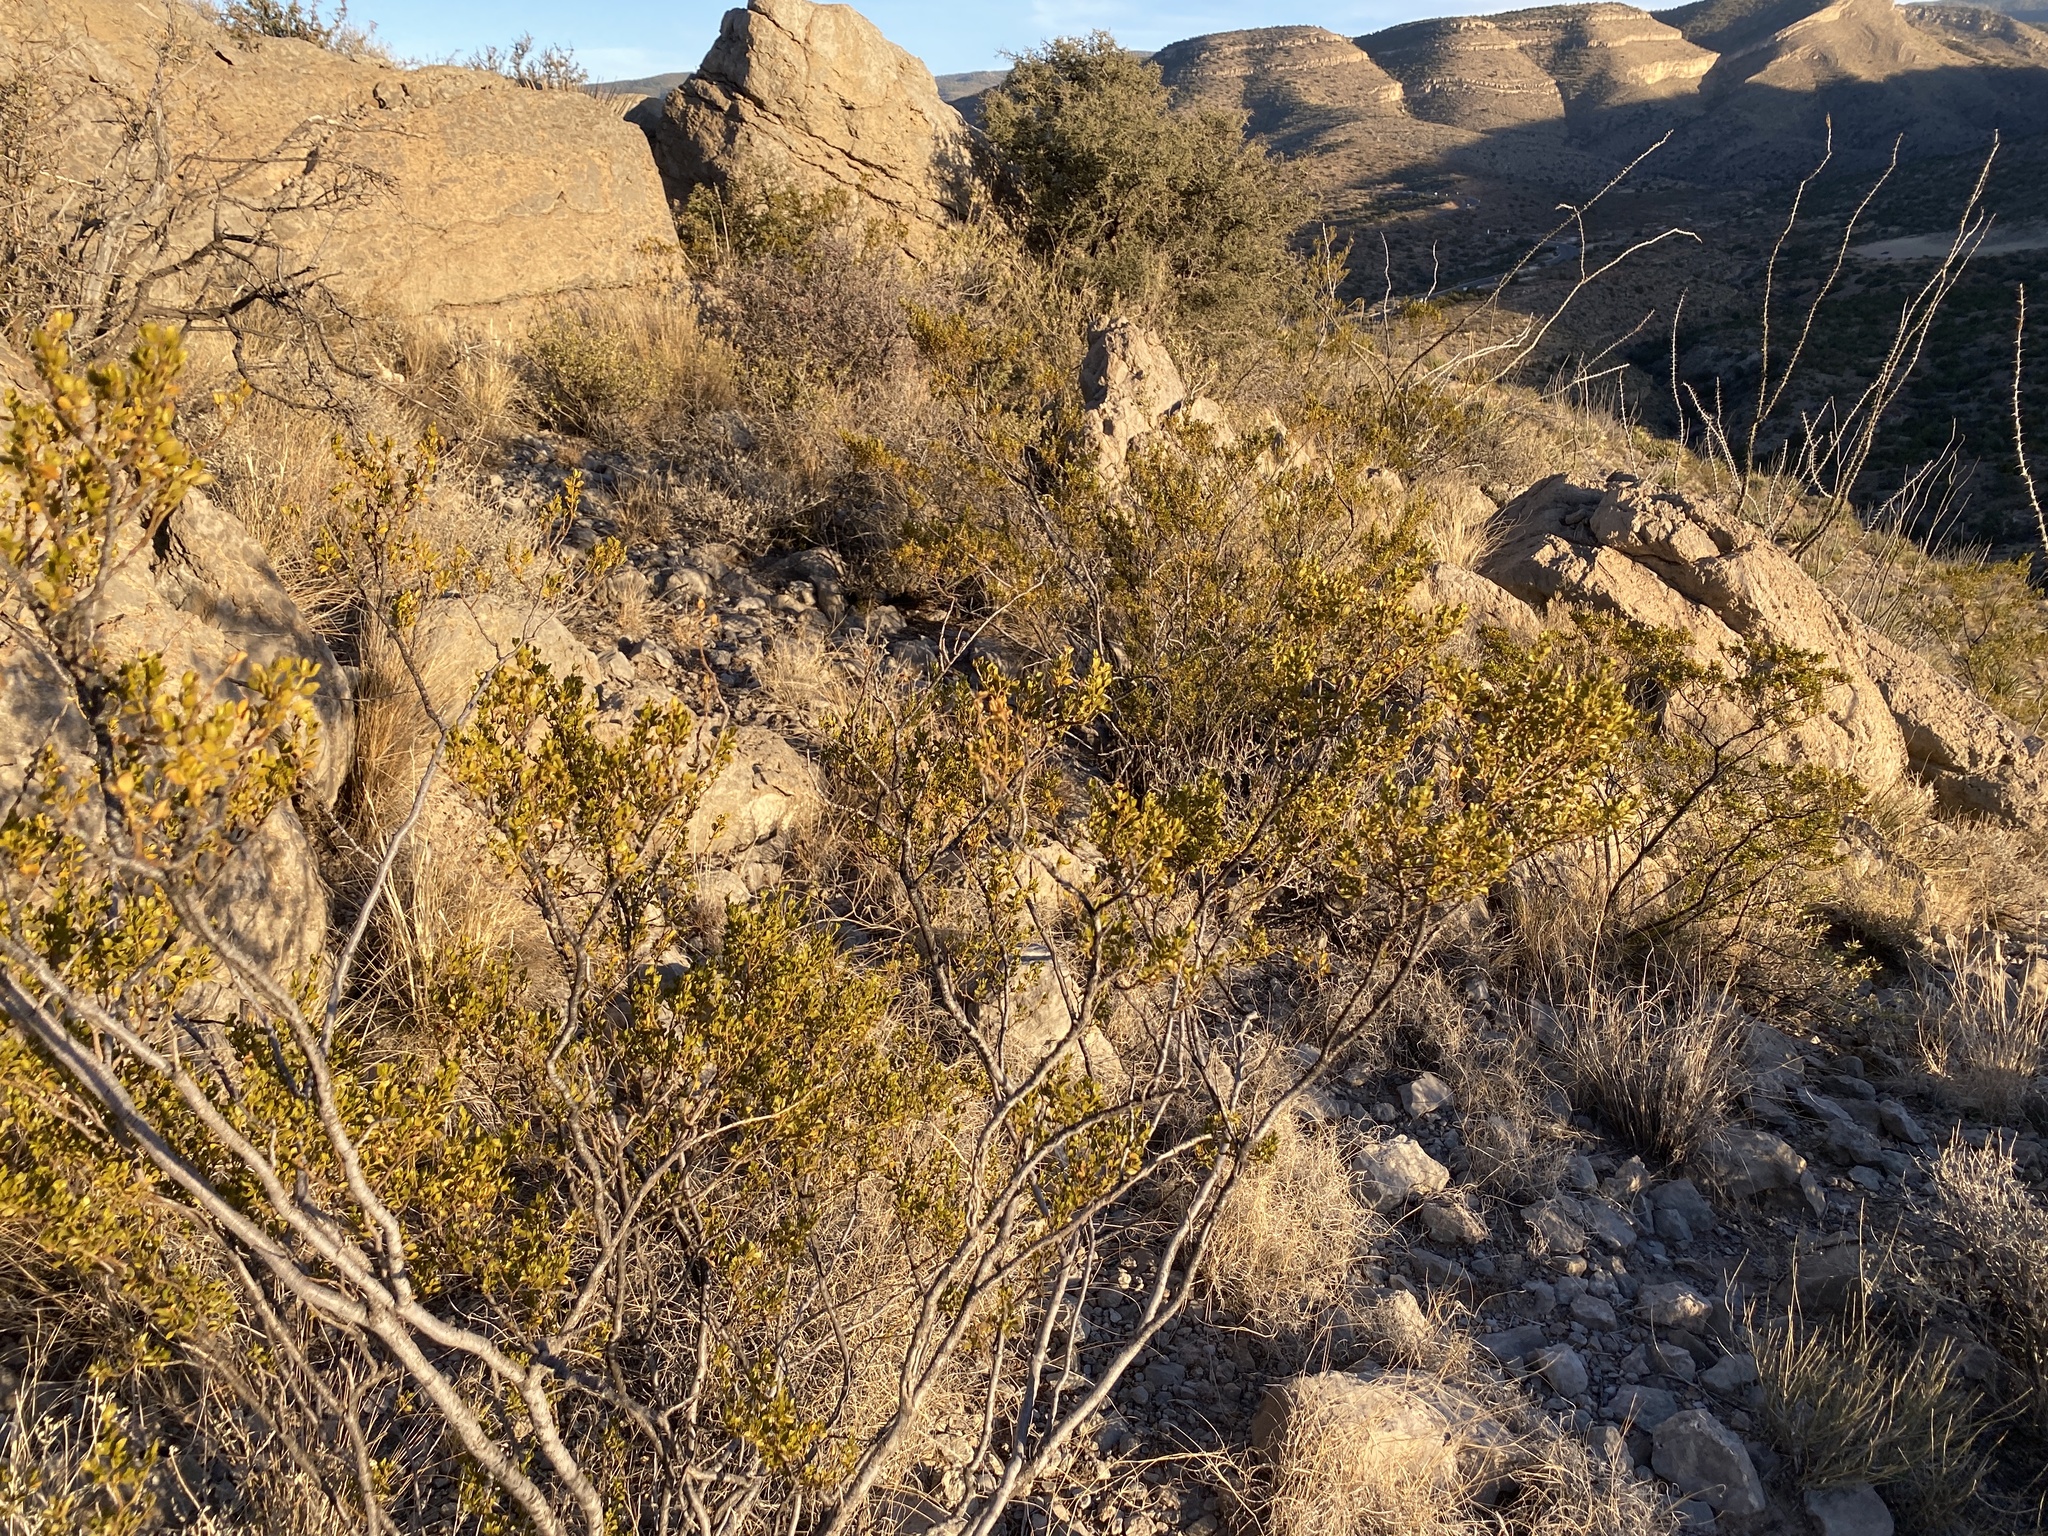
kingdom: Plantae
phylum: Tracheophyta
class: Magnoliopsida
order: Zygophyllales
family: Zygophyllaceae
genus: Larrea
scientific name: Larrea tridentata
